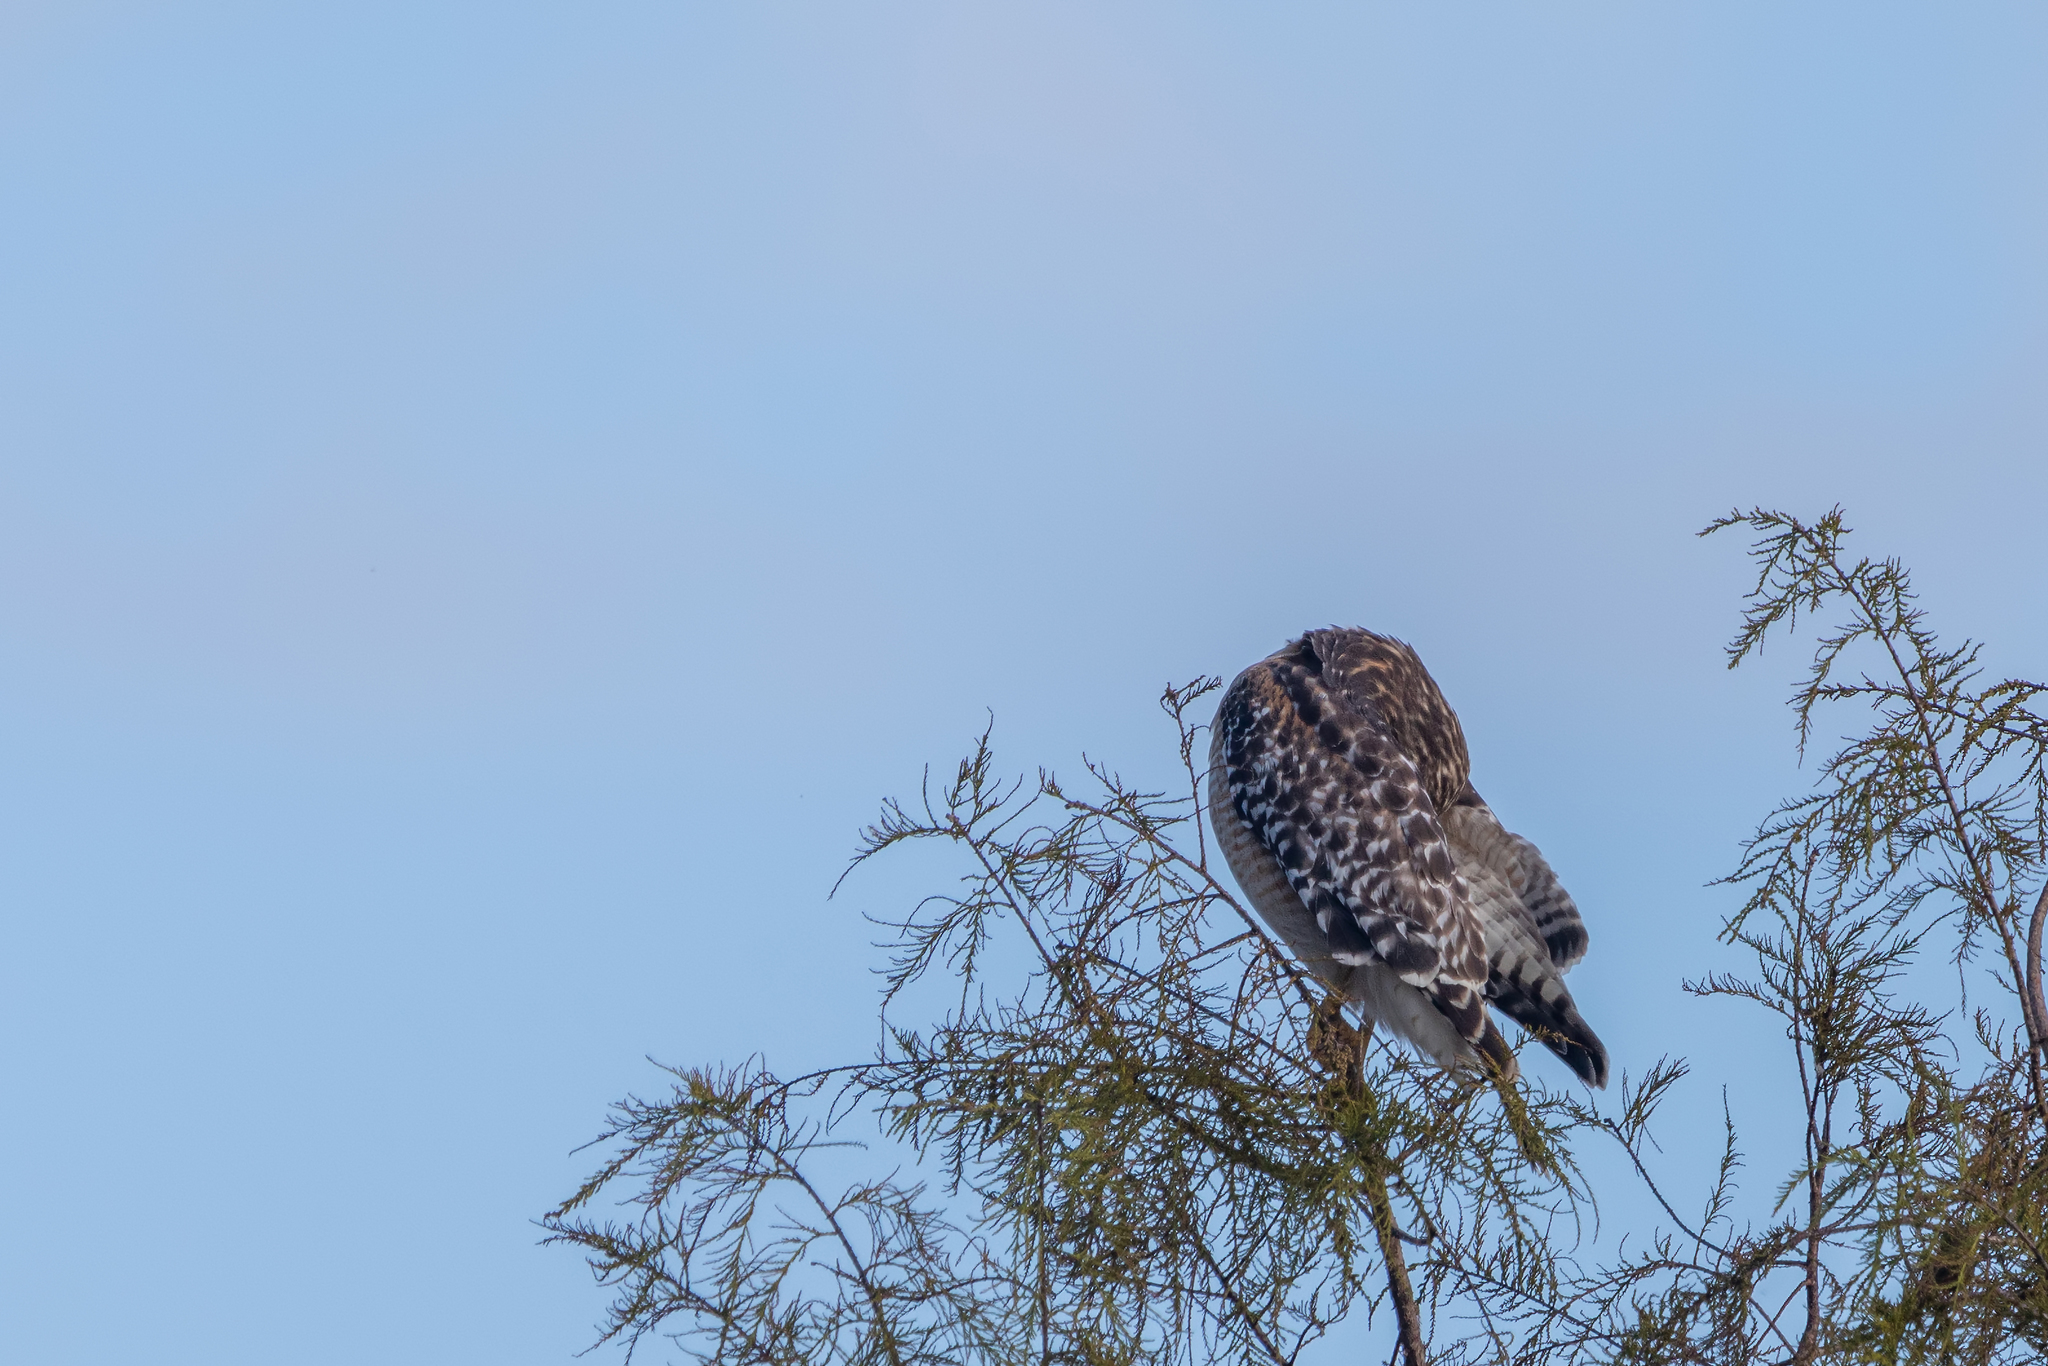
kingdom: Animalia
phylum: Chordata
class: Aves
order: Accipitriformes
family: Accipitridae
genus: Buteo
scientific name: Buteo lineatus
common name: Red-shouldered hawk
